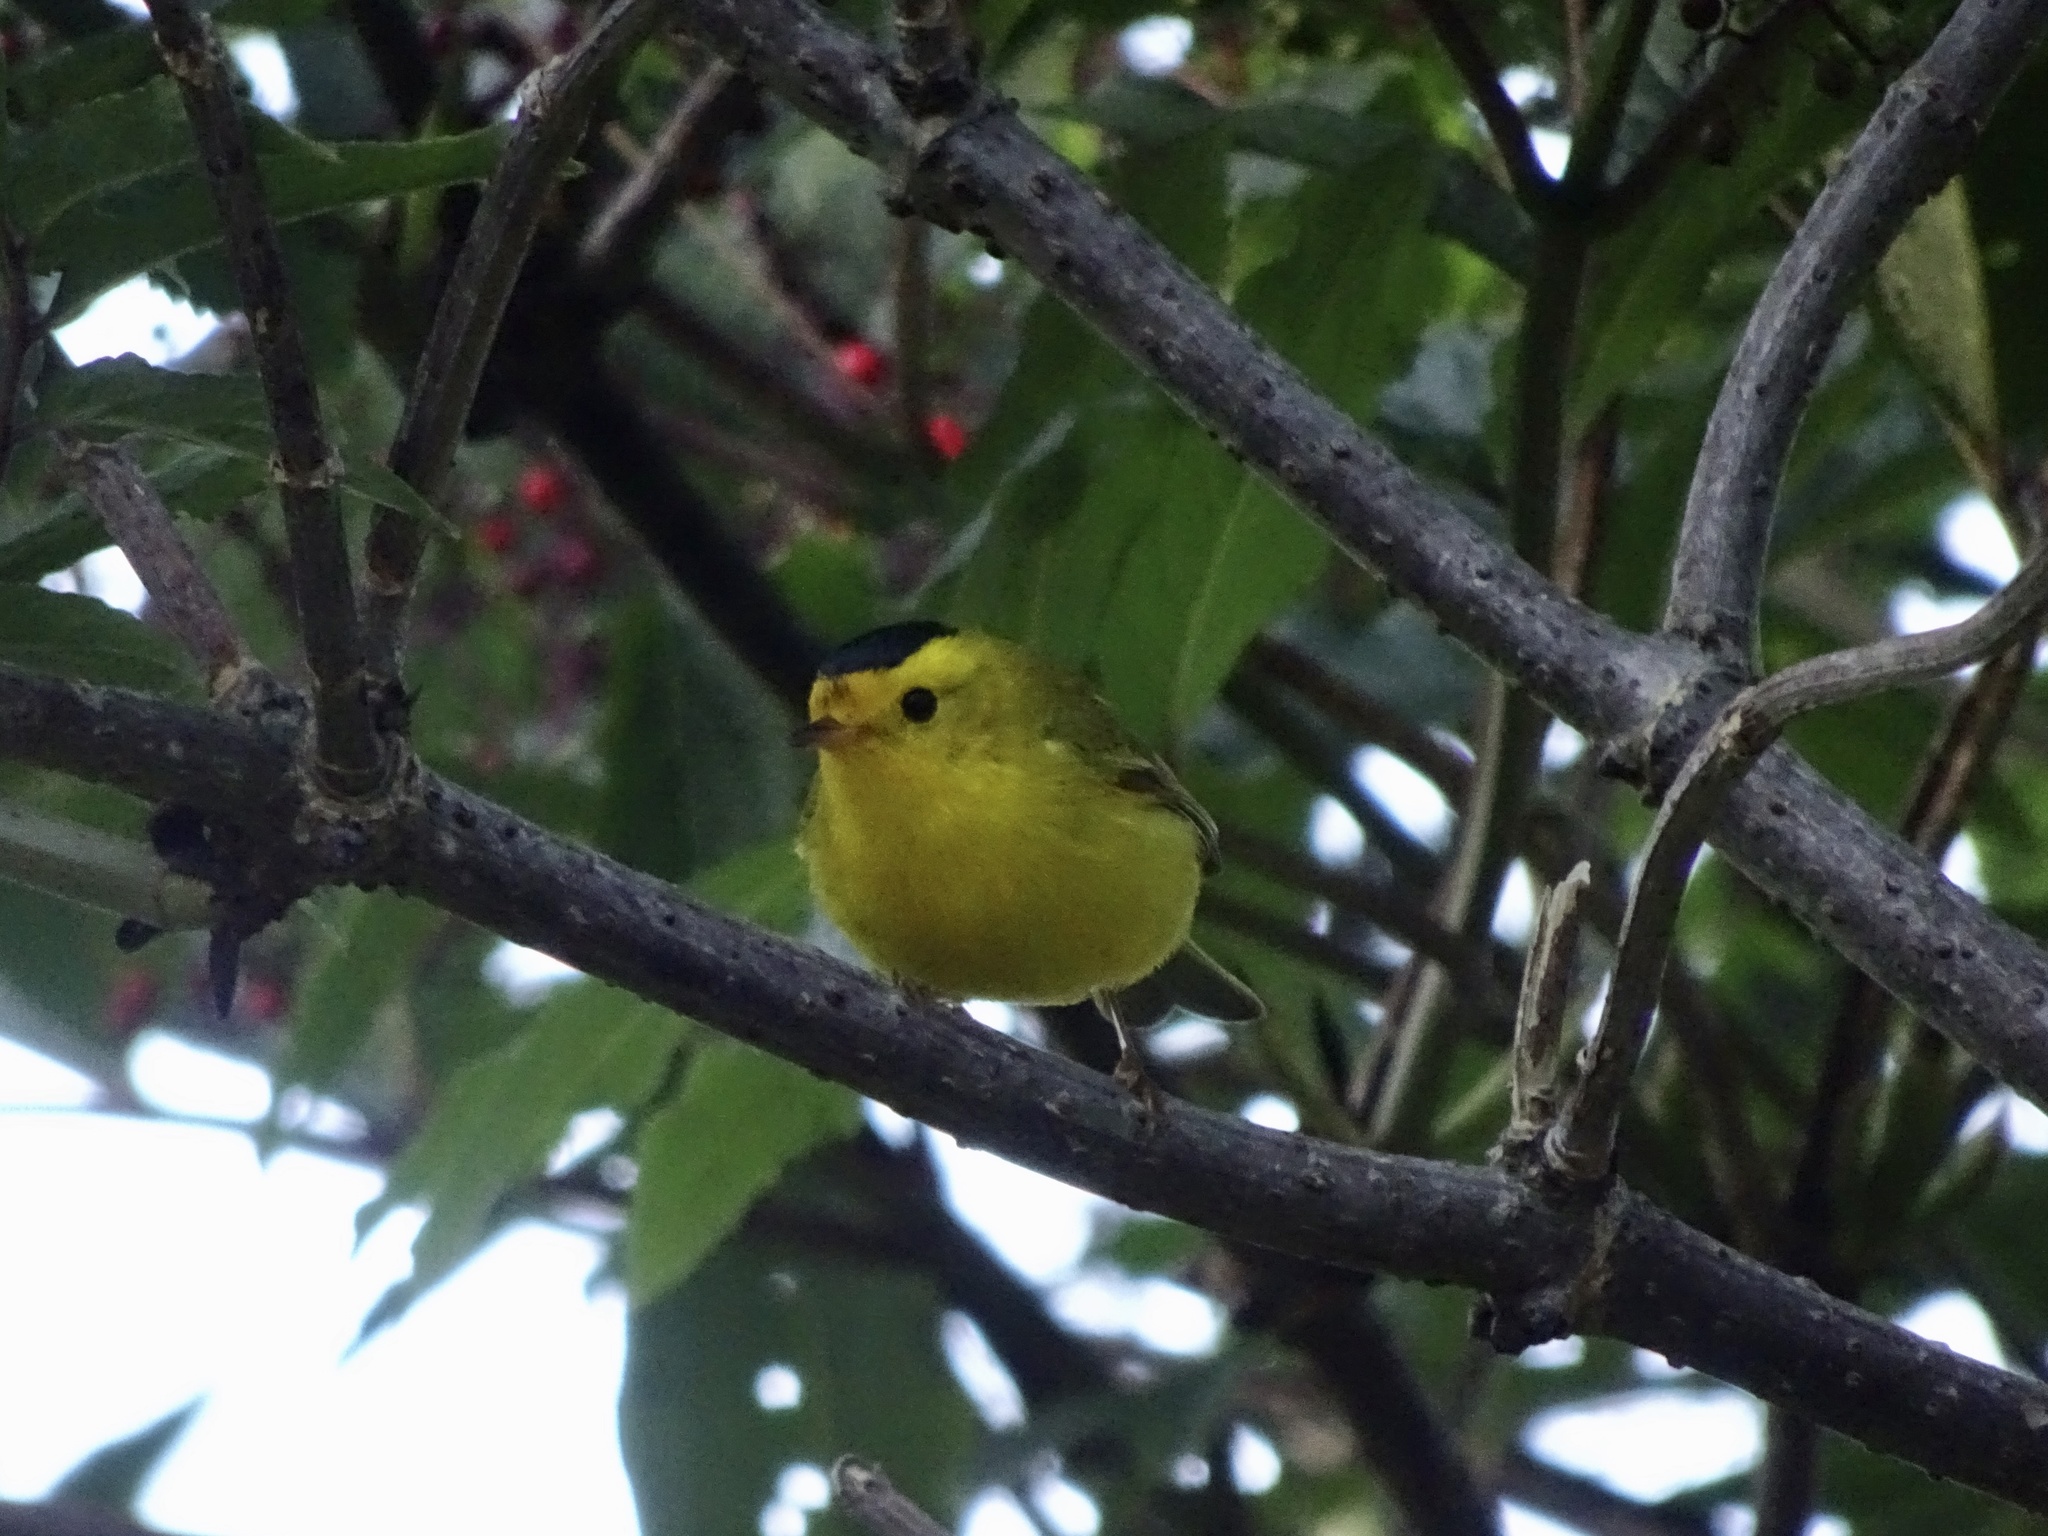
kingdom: Animalia
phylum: Chordata
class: Aves
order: Passeriformes
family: Parulidae
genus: Cardellina
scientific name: Cardellina pusilla
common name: Wilson's warbler
